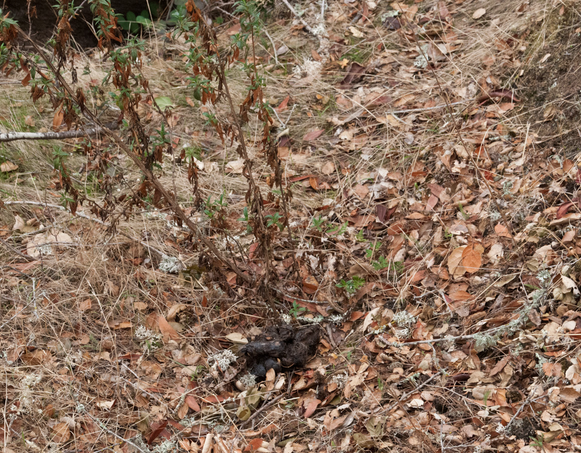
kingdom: Animalia
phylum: Chordata
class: Mammalia
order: Carnivora
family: Felidae
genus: Puma
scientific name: Puma concolor
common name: Puma
